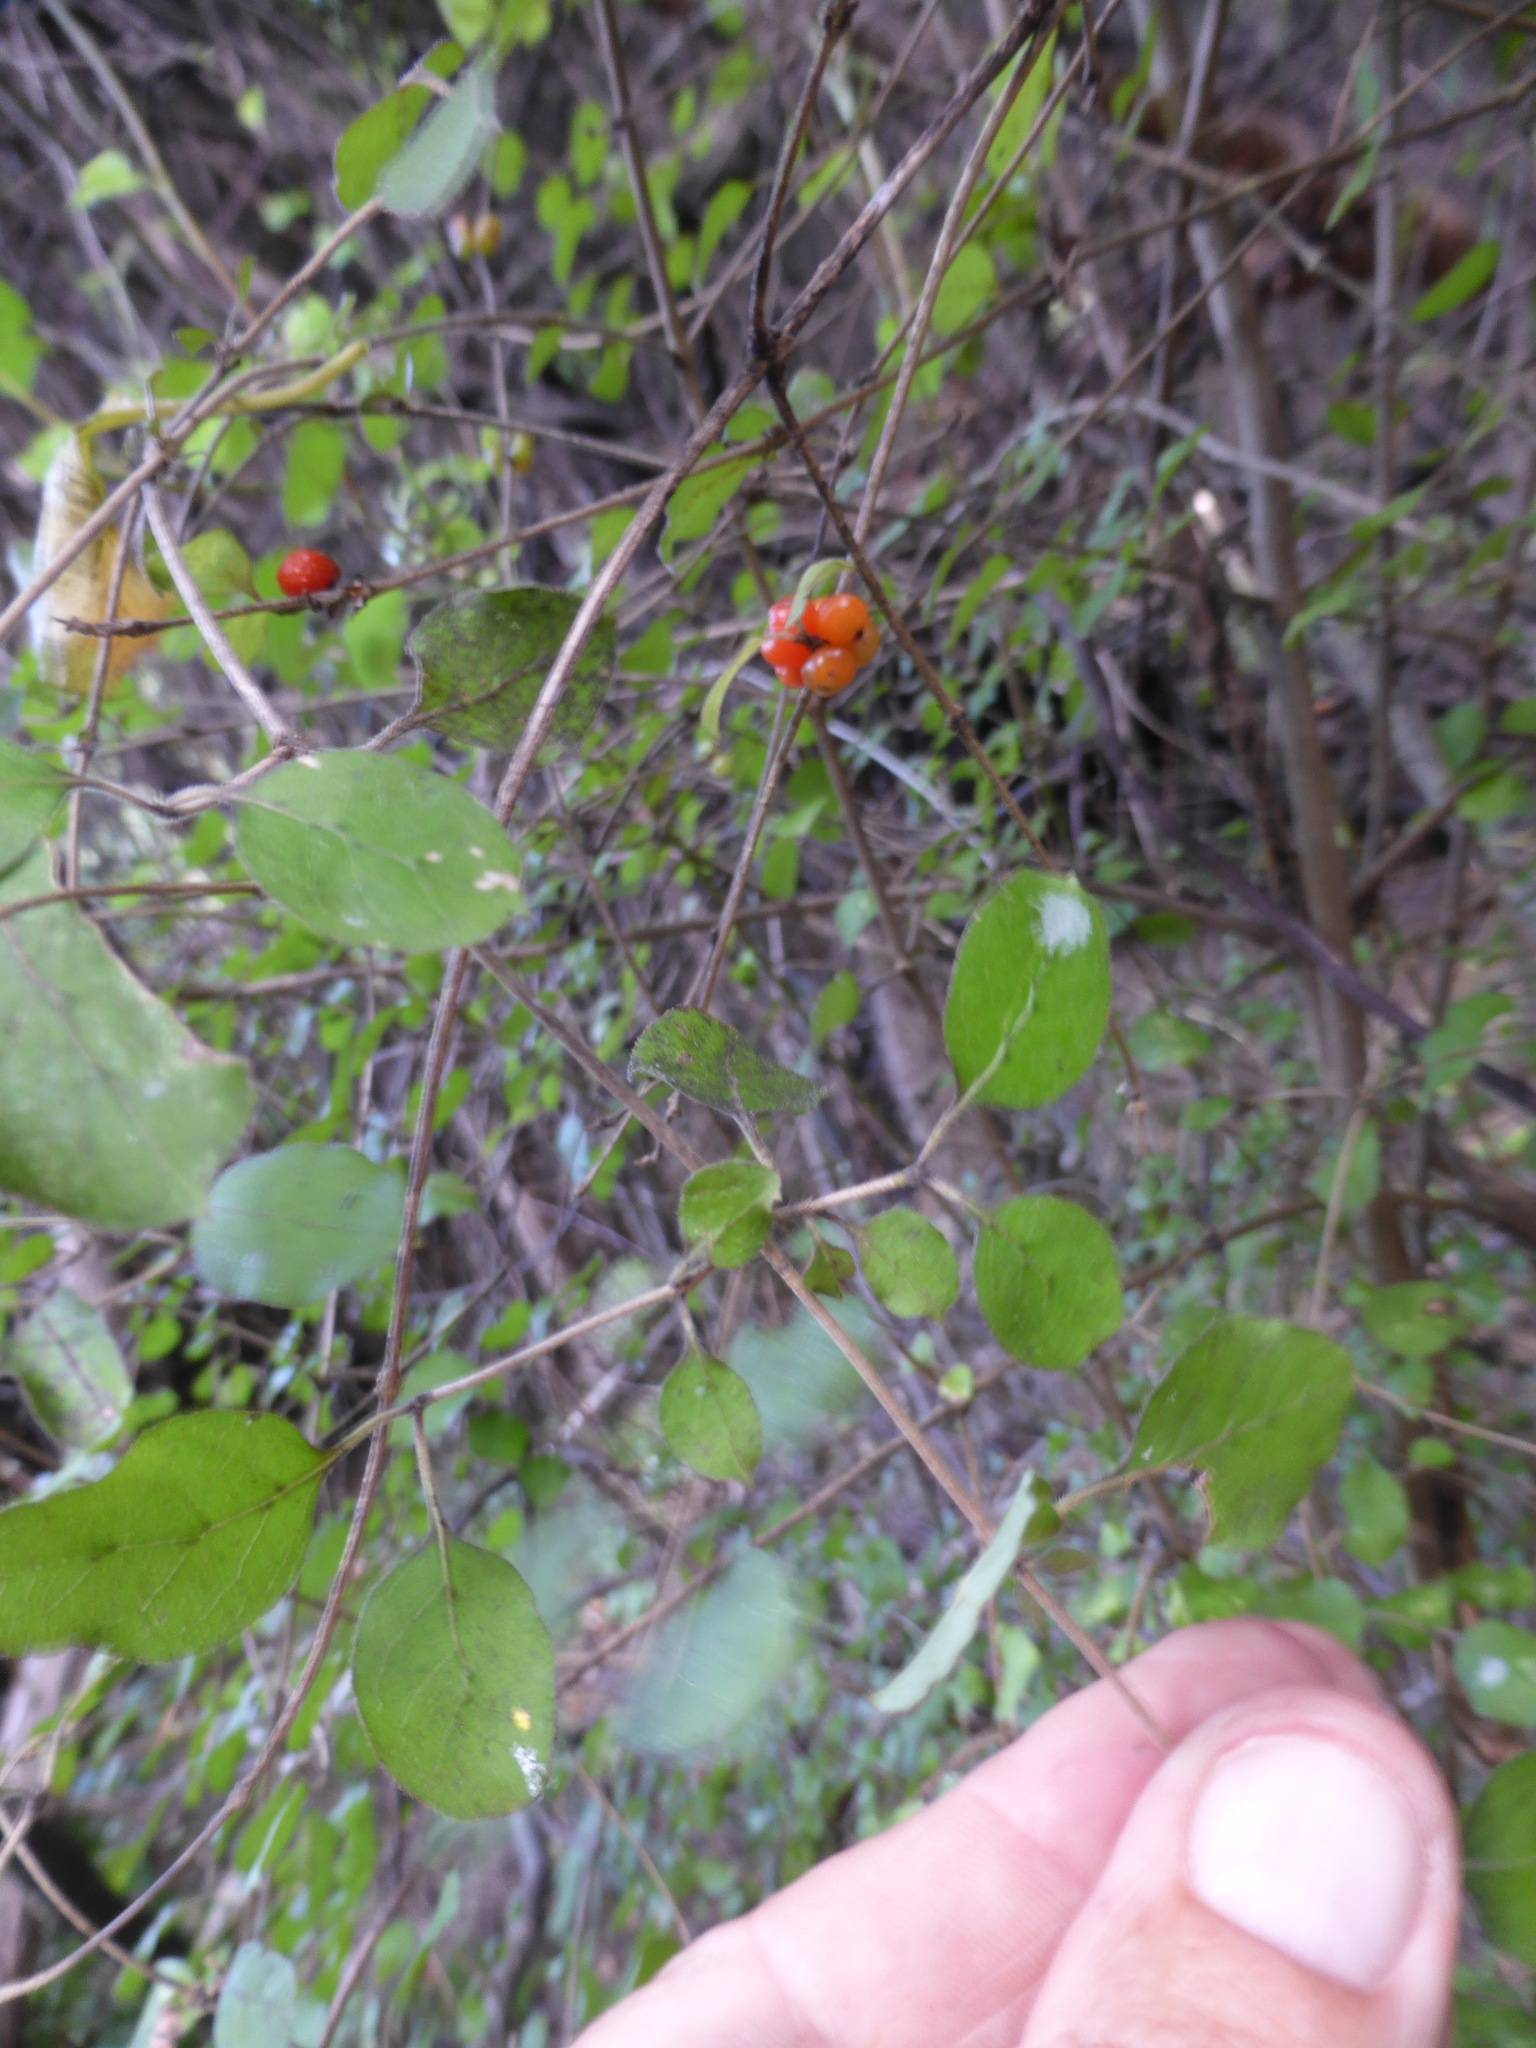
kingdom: Plantae
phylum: Tracheophyta
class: Magnoliopsida
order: Gentianales
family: Rubiaceae
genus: Coprosma
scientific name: Coprosma rotundifolia
